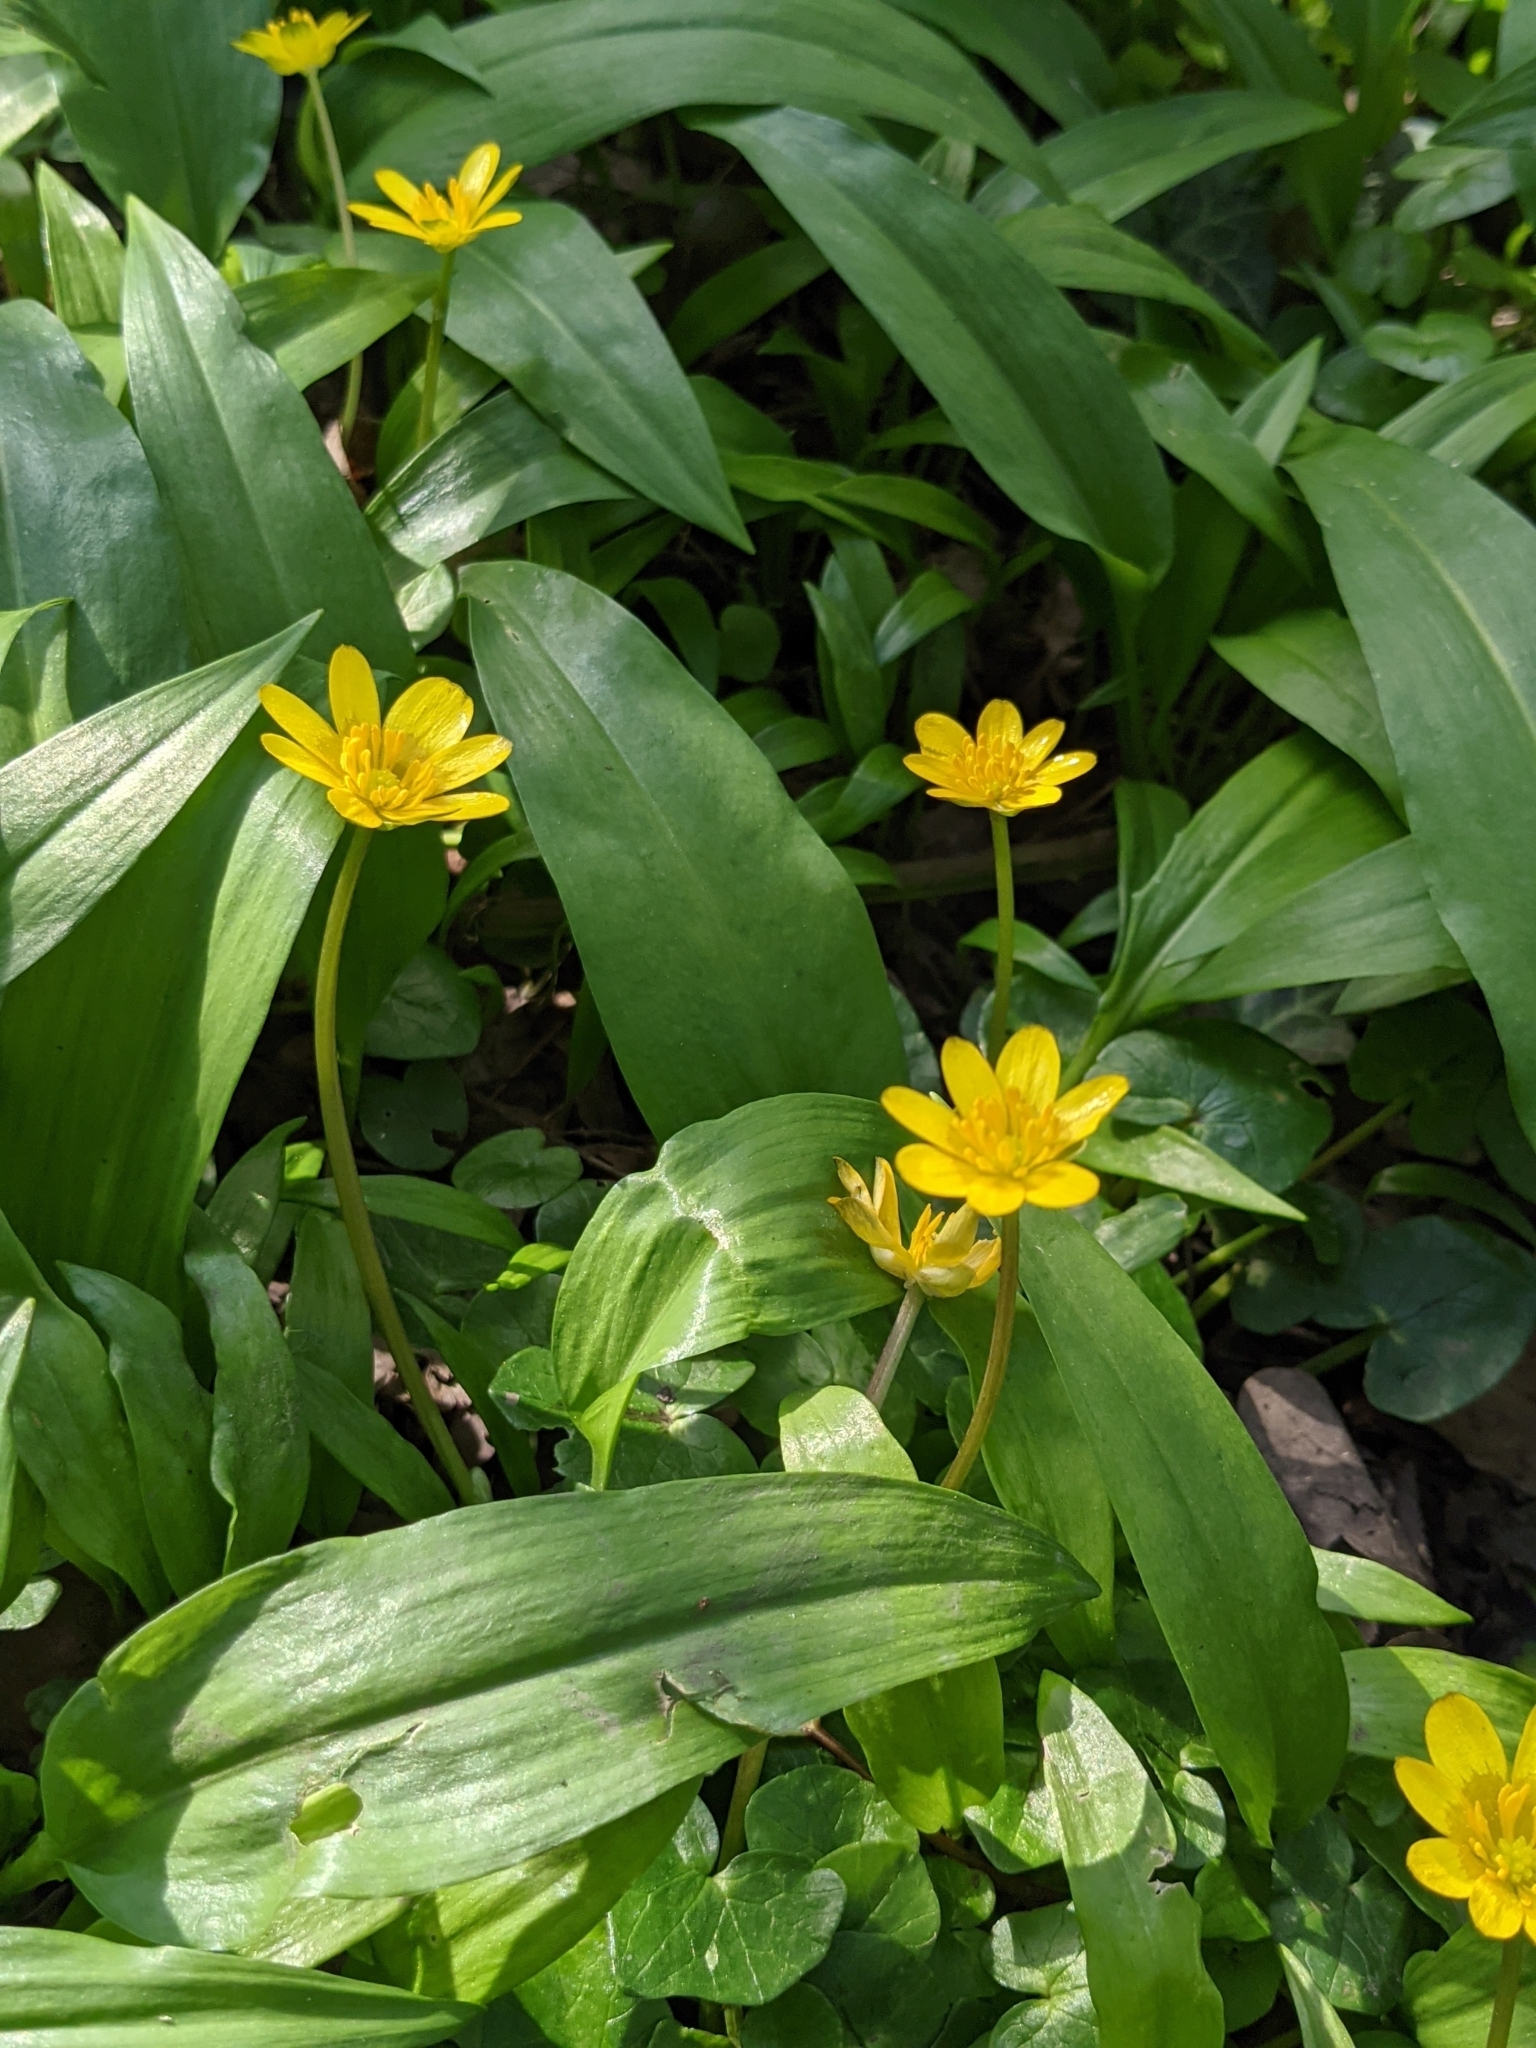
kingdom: Plantae
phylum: Tracheophyta
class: Magnoliopsida
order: Ranunculales
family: Ranunculaceae
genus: Ficaria
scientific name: Ficaria verna
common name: Lesser celandine
